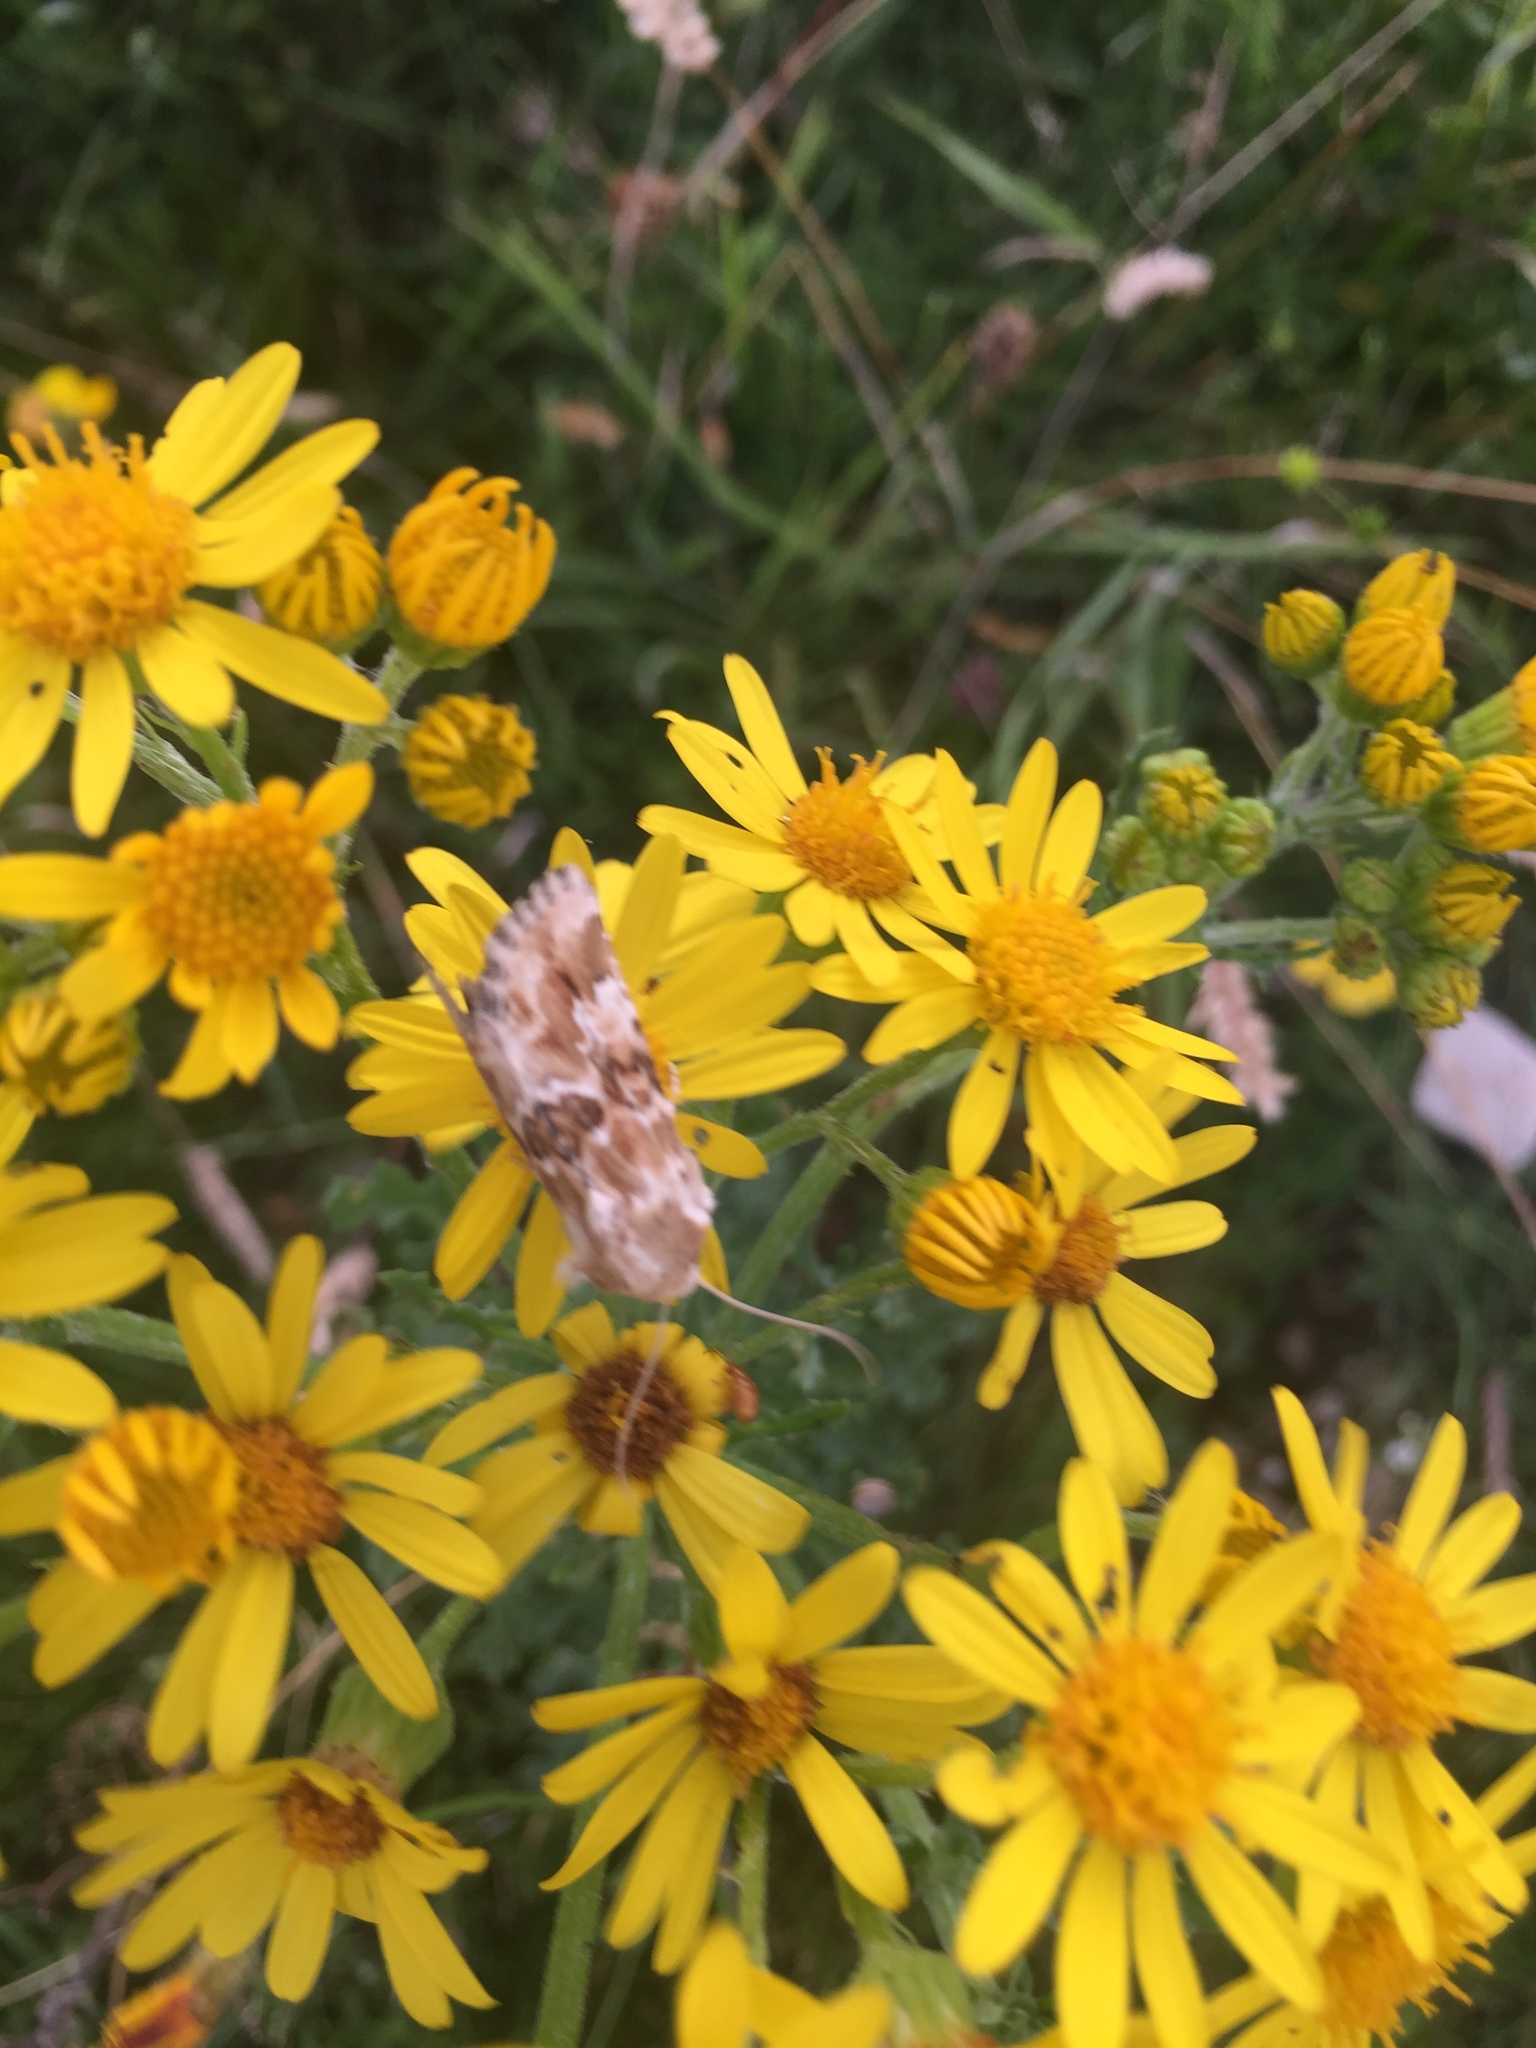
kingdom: Animalia
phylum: Arthropoda
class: Insecta
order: Lepidoptera
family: Noctuidae
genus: Eremobia
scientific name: Eremobia ochroleuca
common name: Dusky sallow
